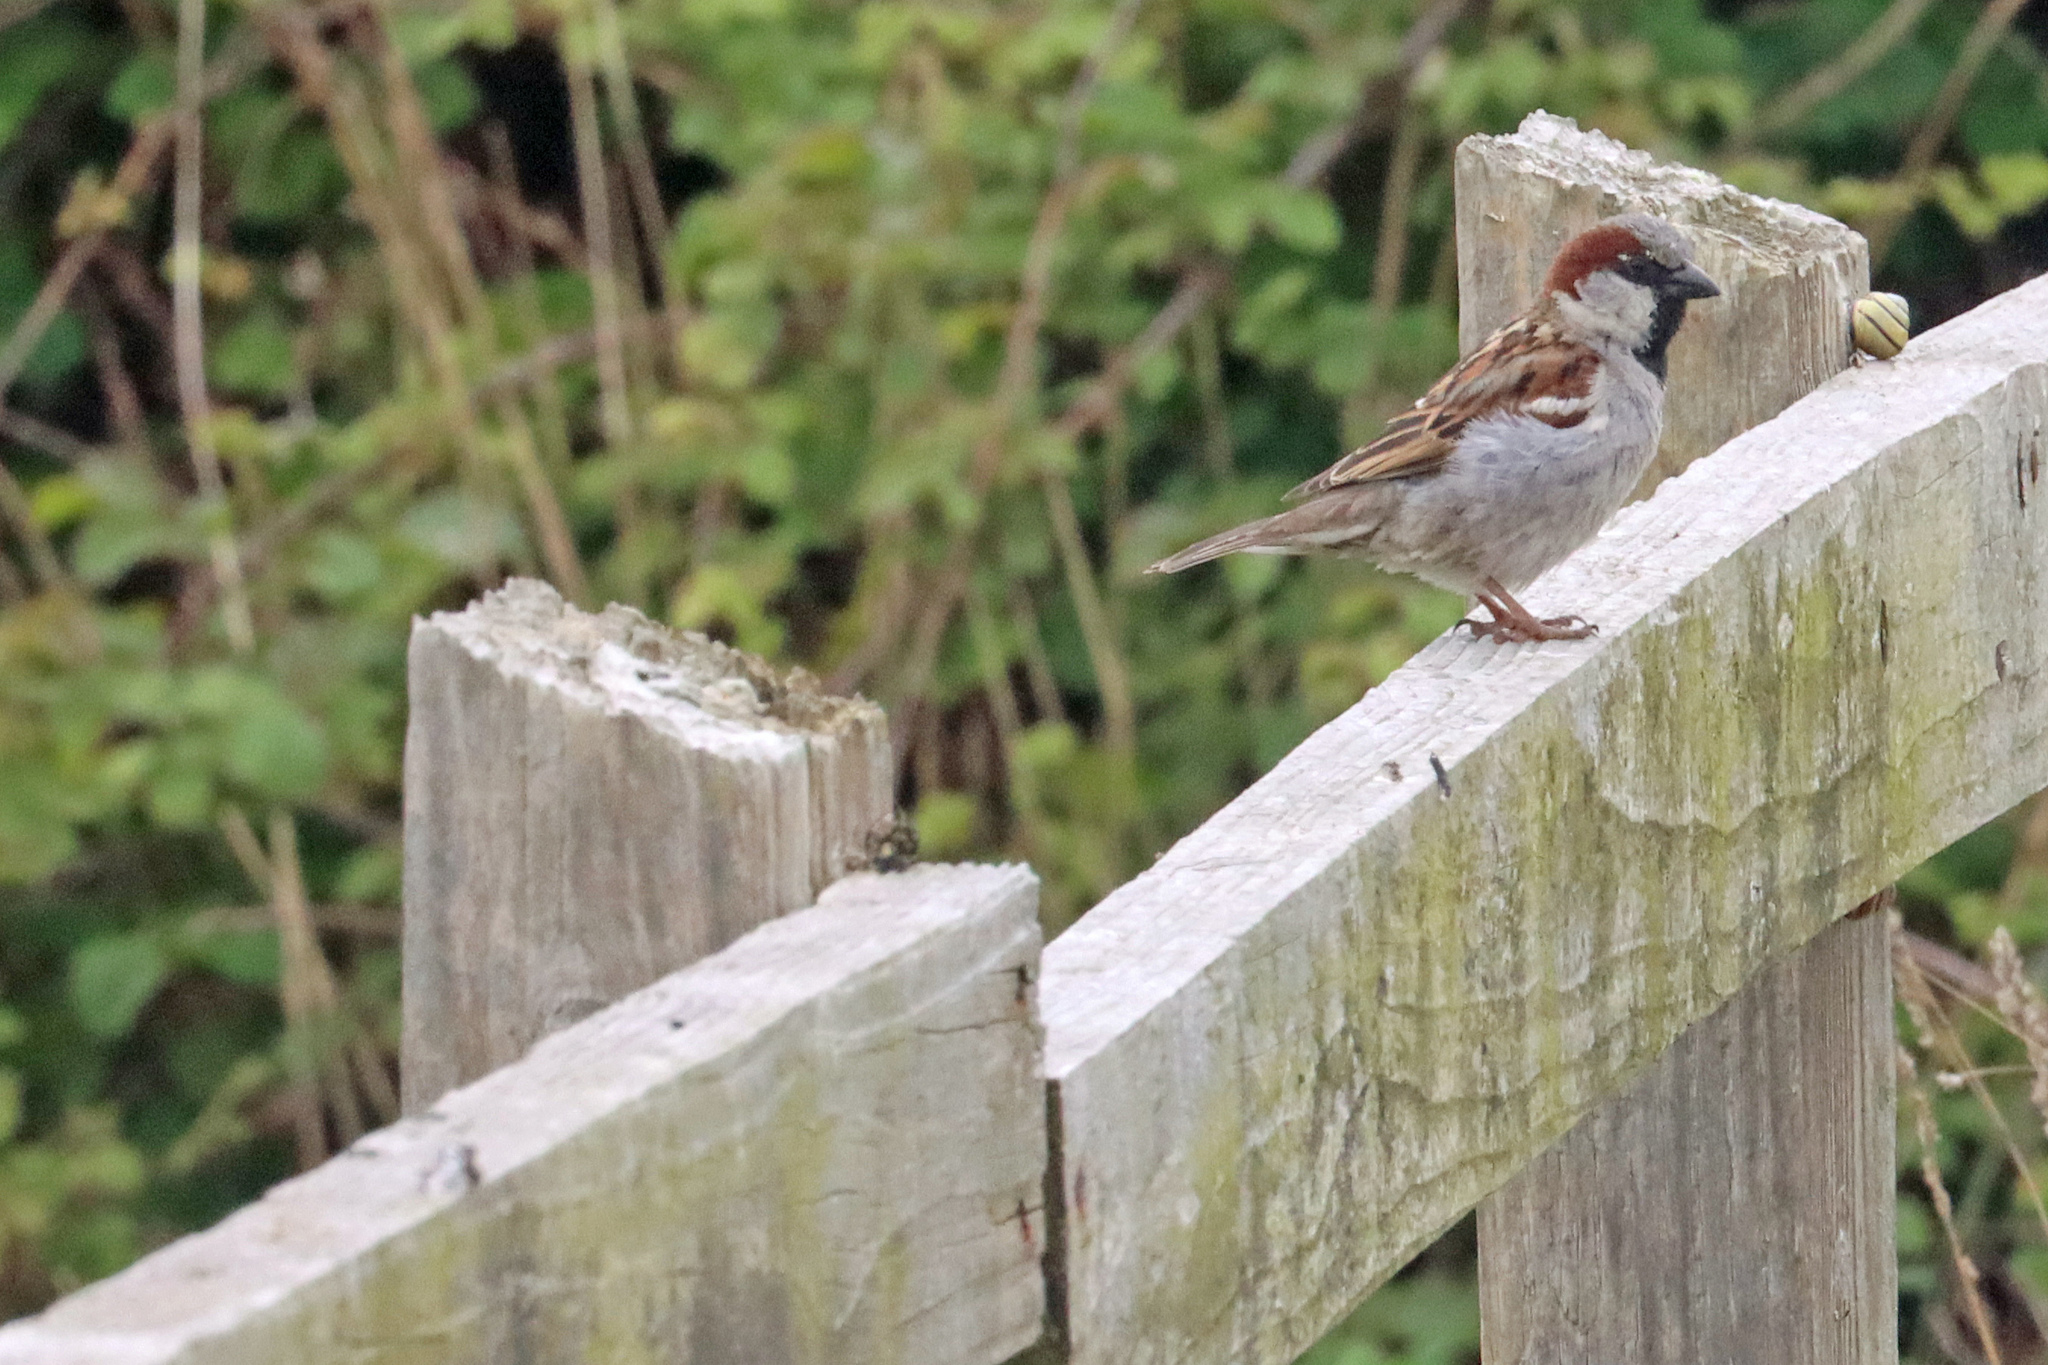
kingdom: Animalia
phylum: Chordata
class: Aves
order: Passeriformes
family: Passeridae
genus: Passer
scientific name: Passer domesticus
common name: House sparrow
